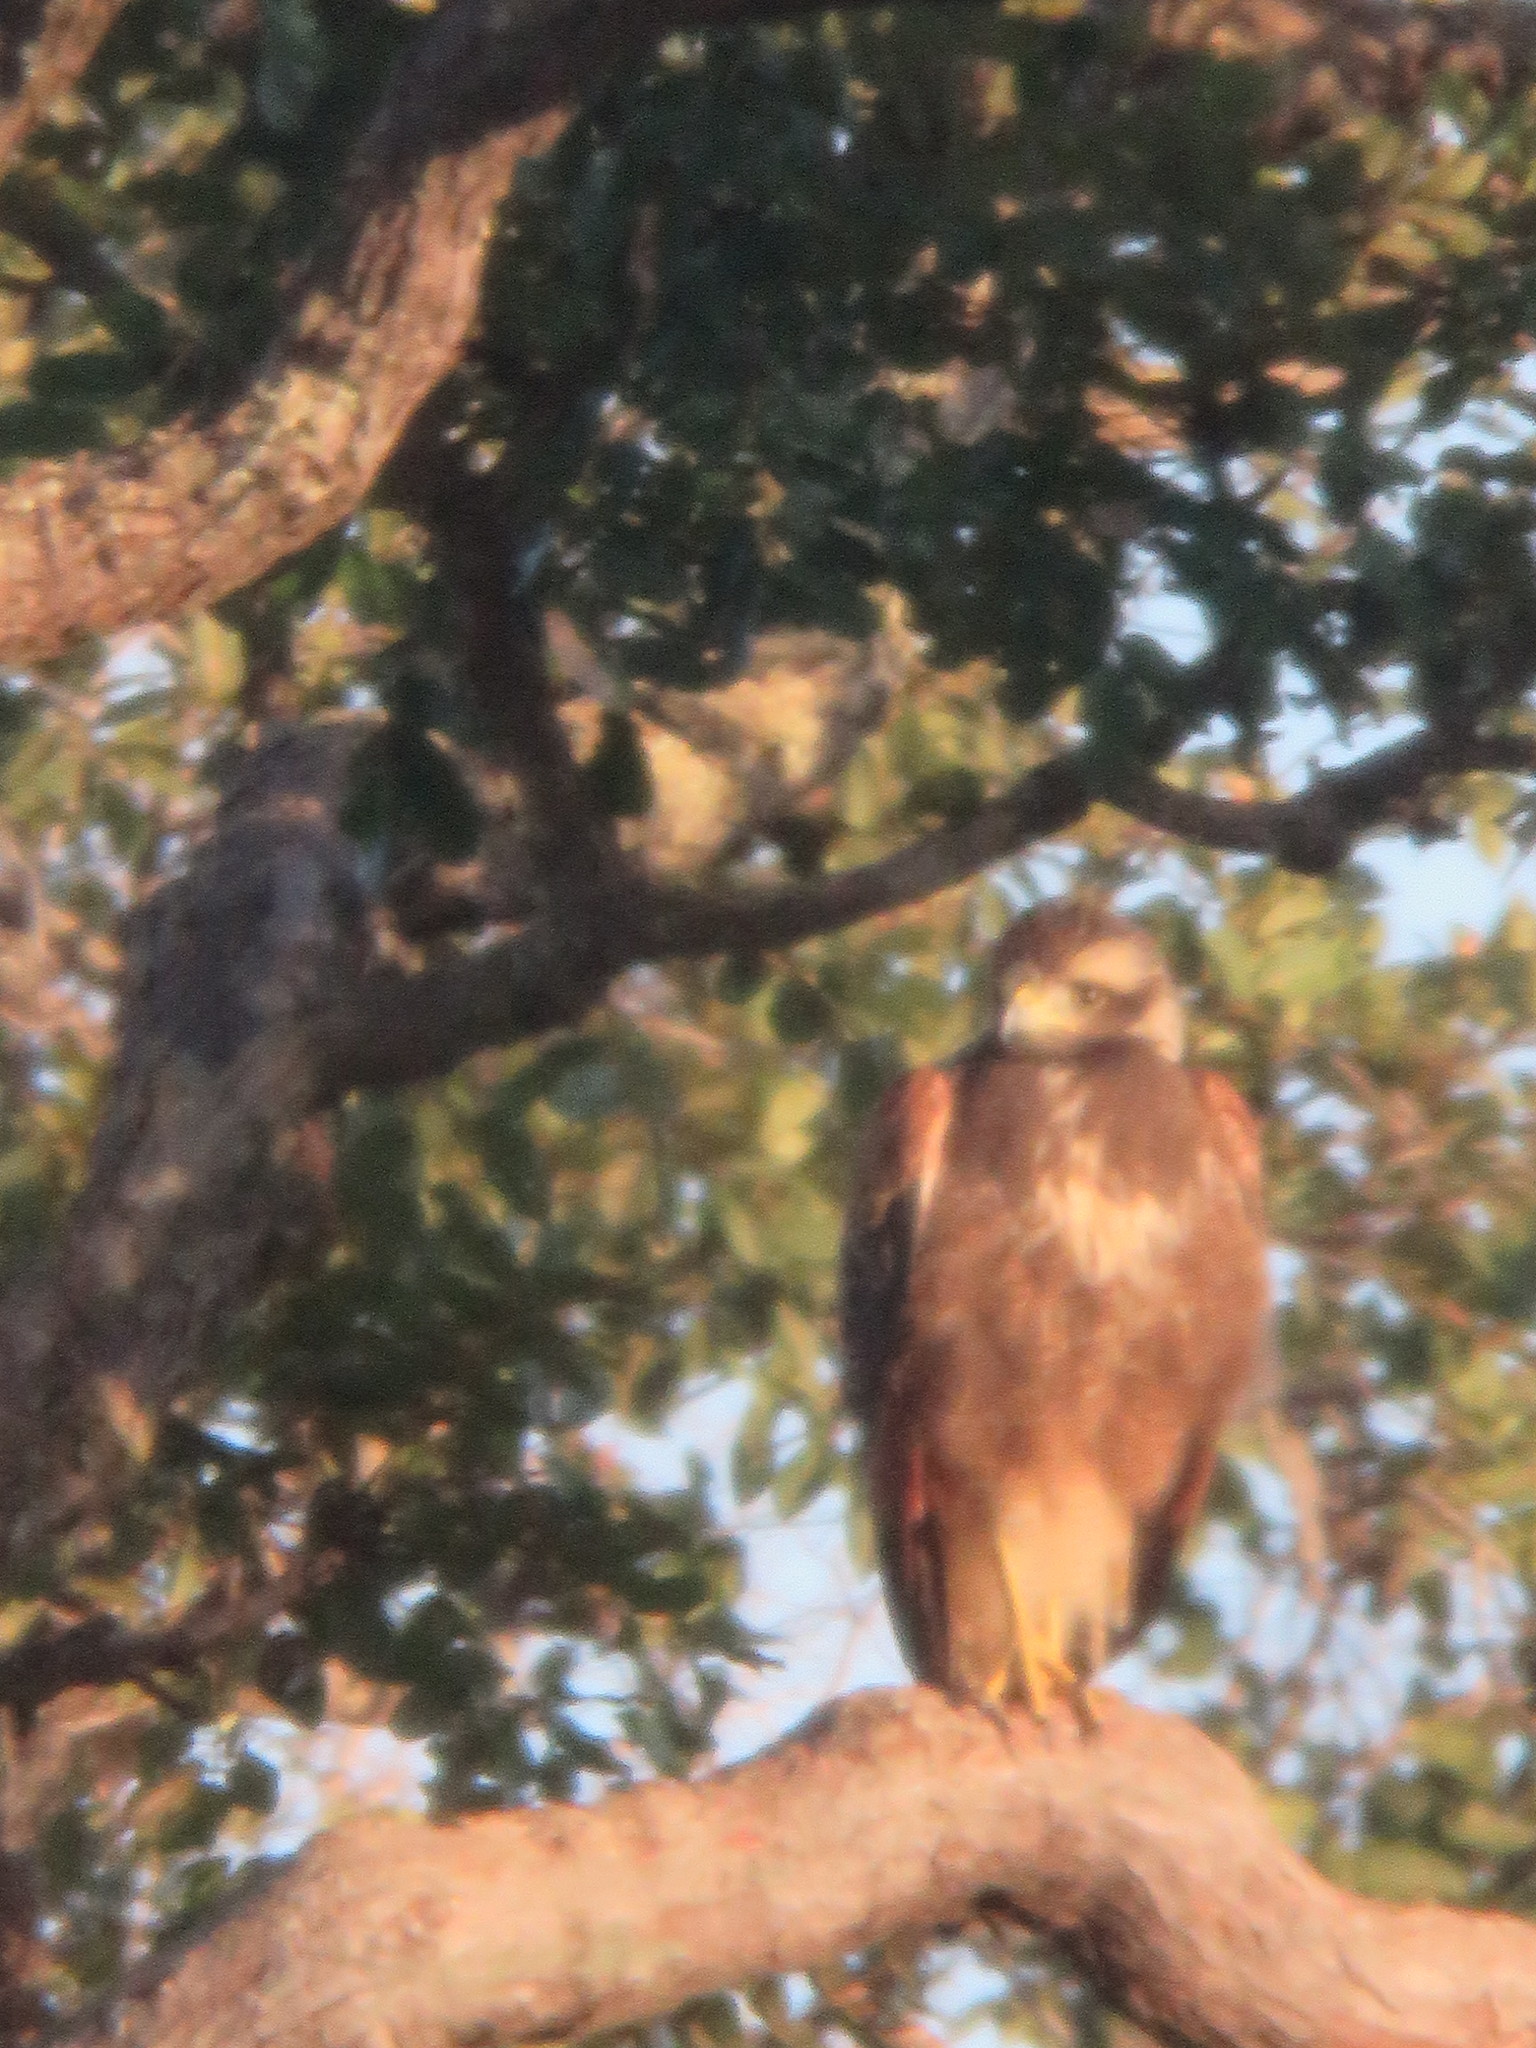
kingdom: Animalia
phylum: Chordata
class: Aves
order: Accipitriformes
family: Accipitridae
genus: Buteogallus
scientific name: Buteogallus meridionalis
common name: Savanna hawk
